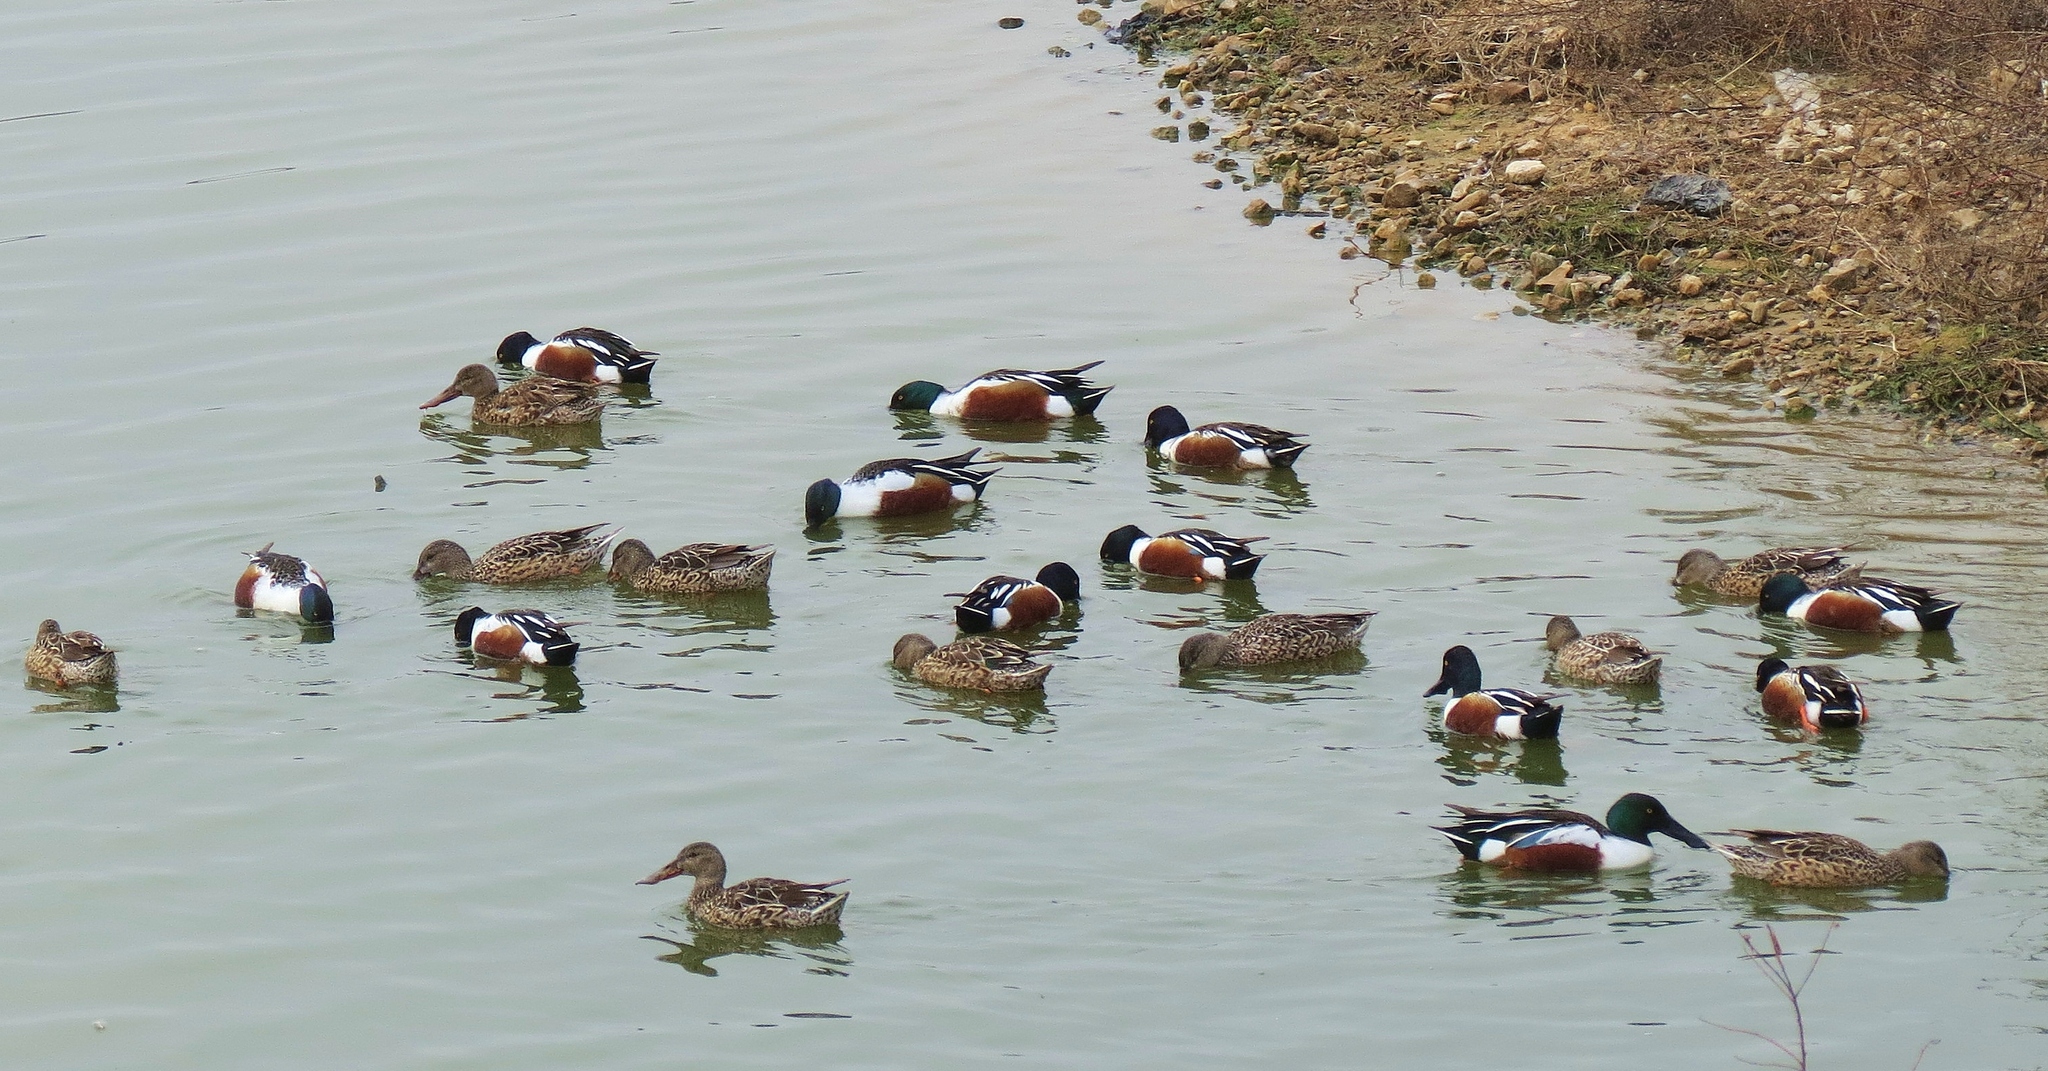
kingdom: Animalia
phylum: Chordata
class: Aves
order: Anseriformes
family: Anatidae
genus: Spatula
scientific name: Spatula clypeata
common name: Northern shoveler
